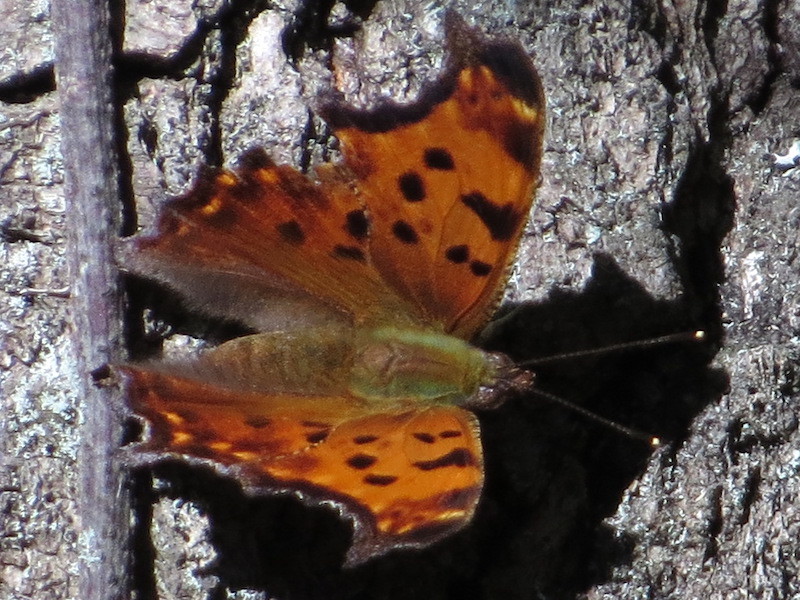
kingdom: Animalia
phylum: Arthropoda
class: Insecta
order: Lepidoptera
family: Nymphalidae
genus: Polygonia
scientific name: Polygonia comma
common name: Eastern comma
